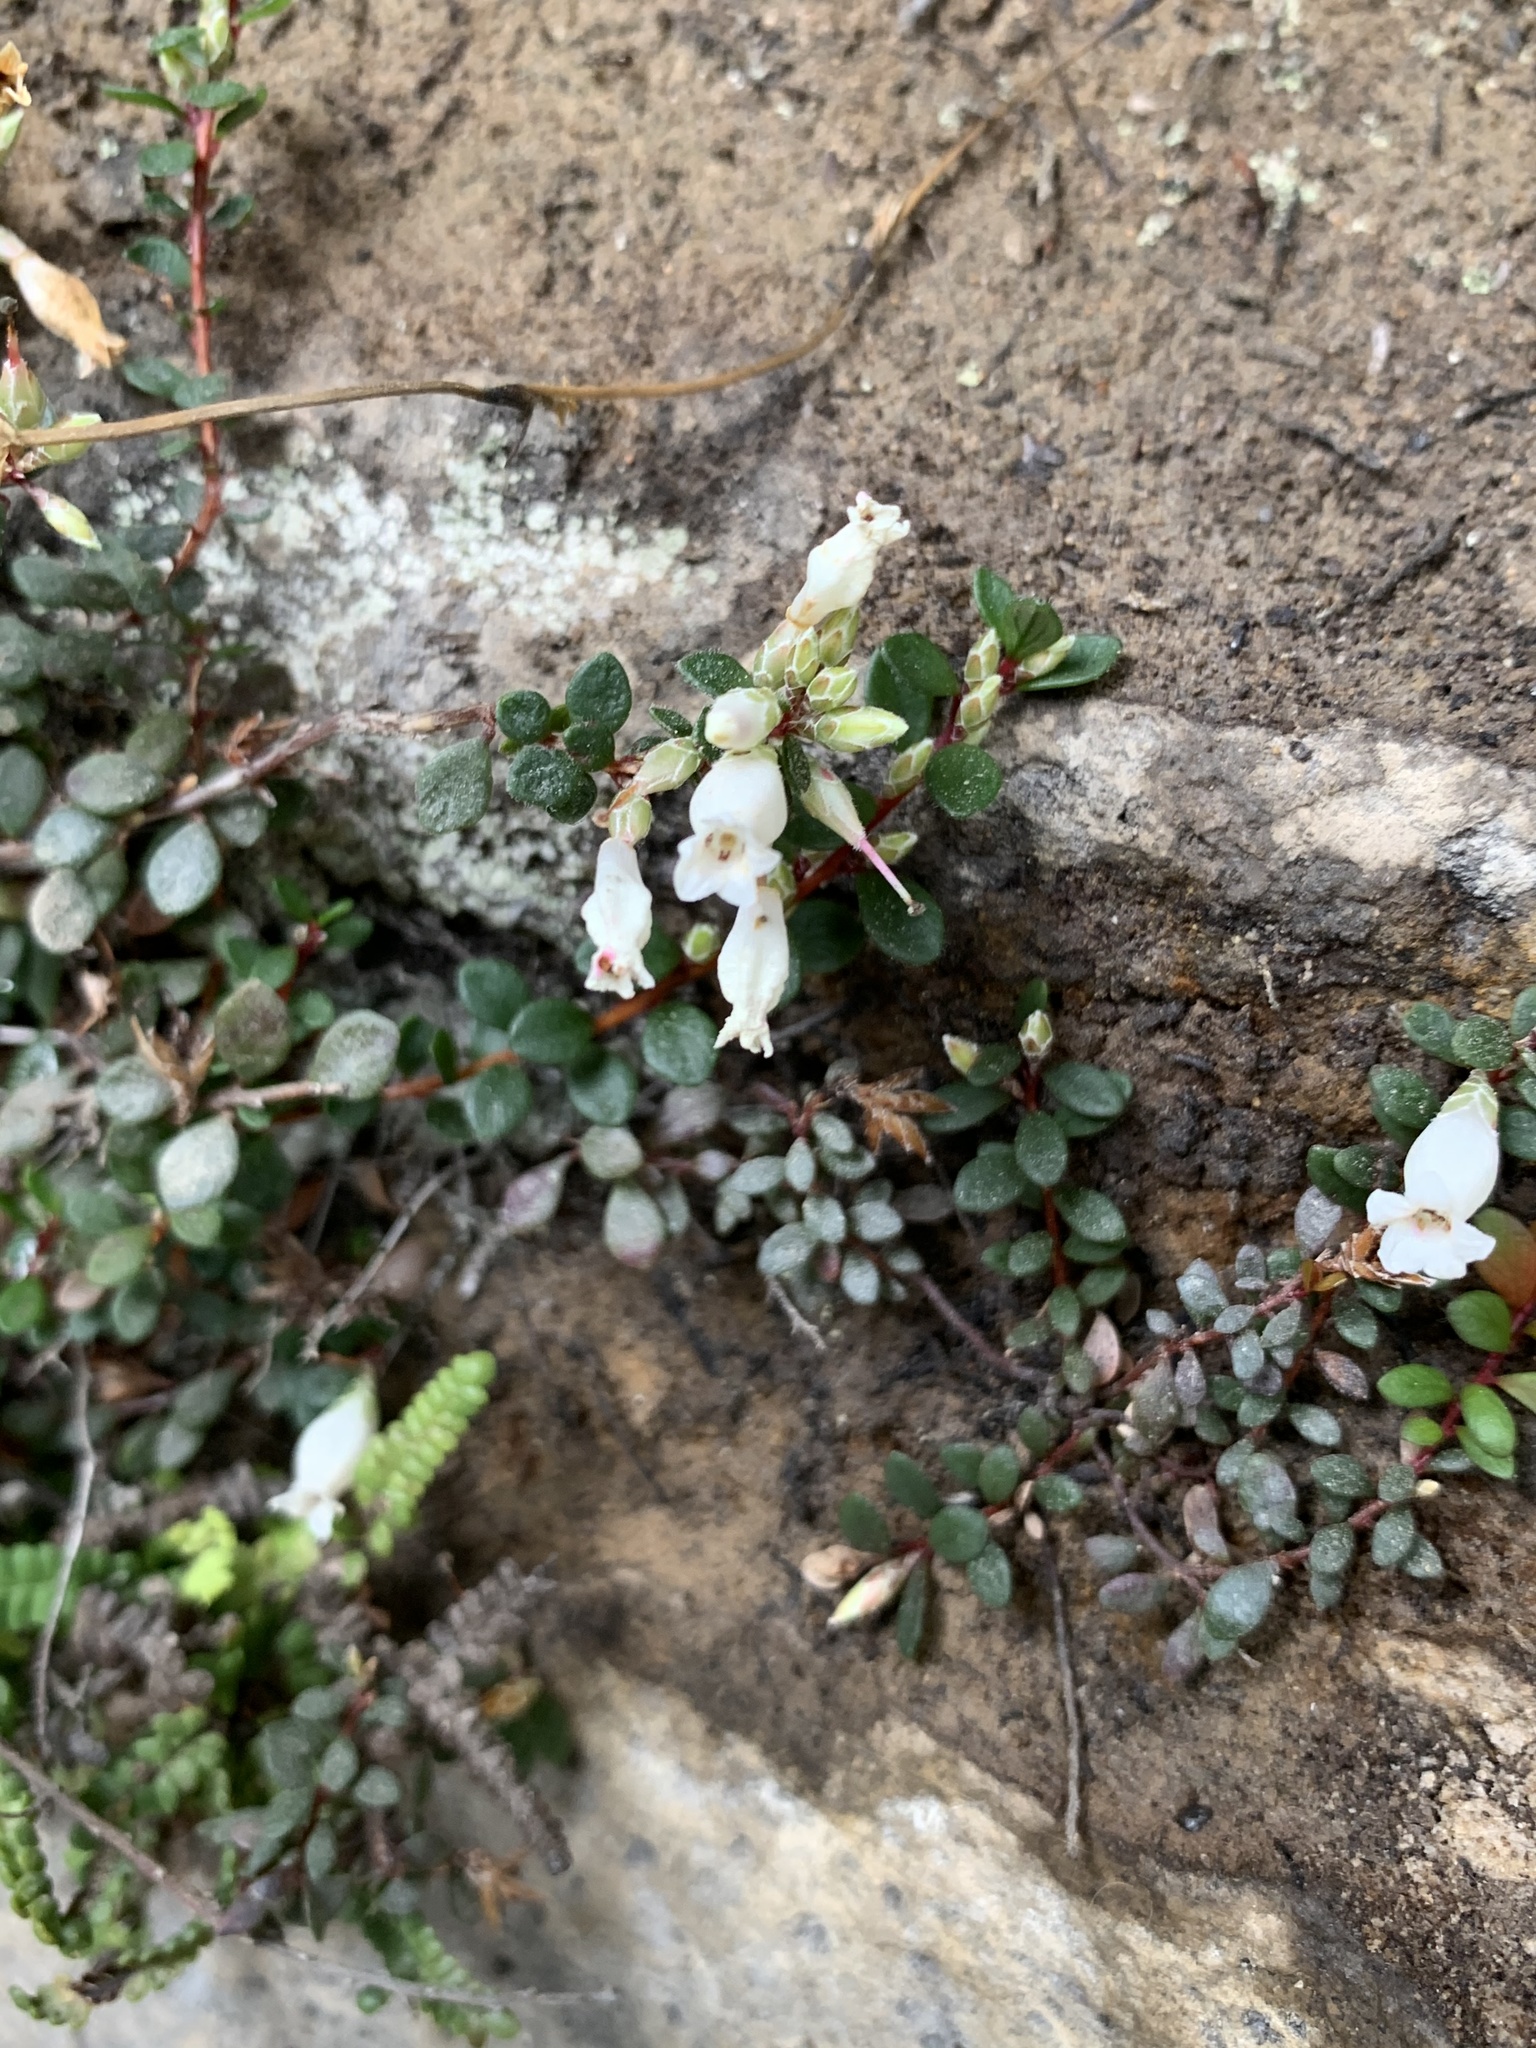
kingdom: Plantae
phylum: Tracheophyta
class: Magnoliopsida
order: Ericales
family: Ericaceae
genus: Epacris
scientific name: Epacris crassifolia
